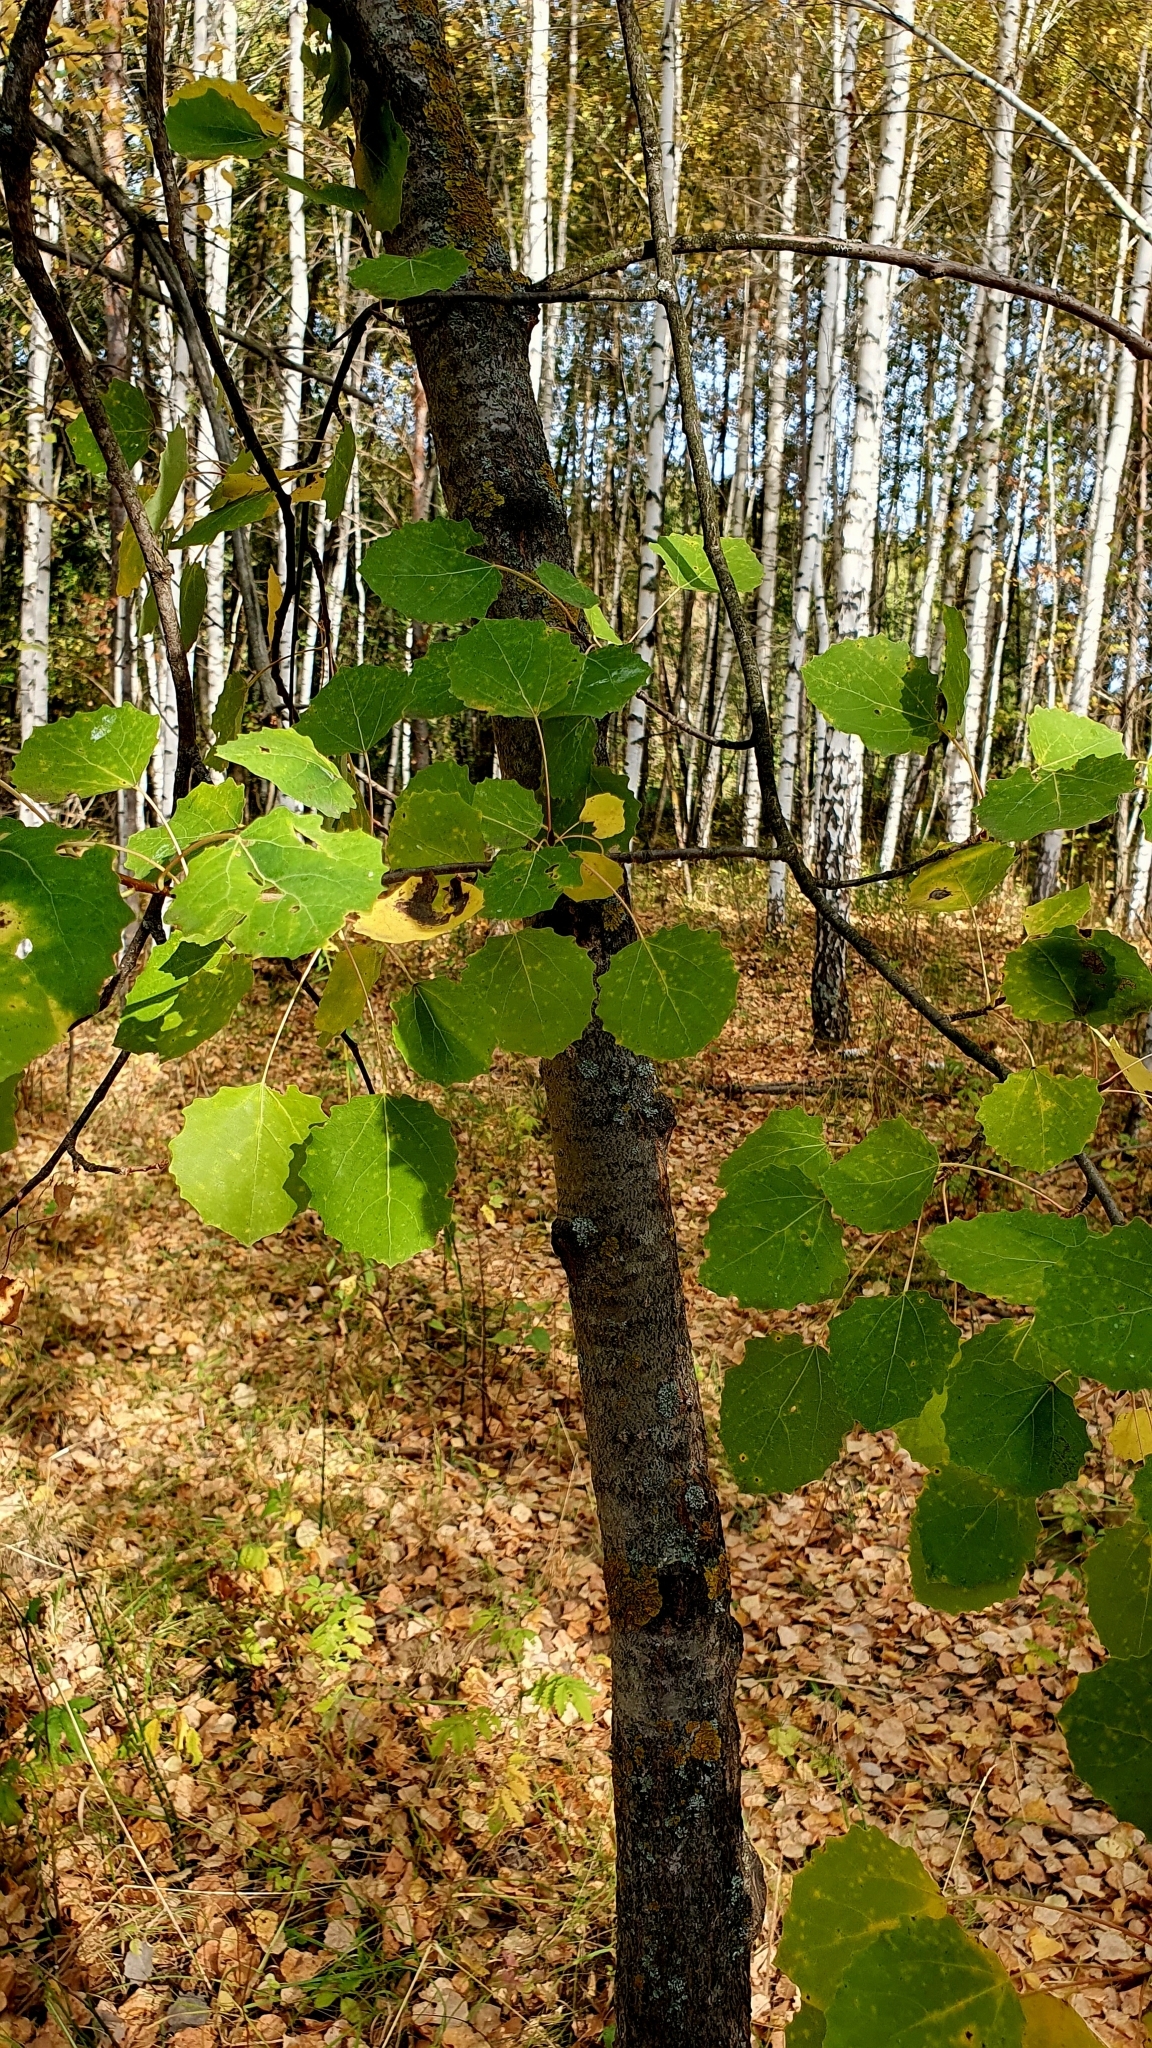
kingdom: Plantae
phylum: Tracheophyta
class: Magnoliopsida
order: Malpighiales
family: Salicaceae
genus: Populus
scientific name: Populus tremula
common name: European aspen
